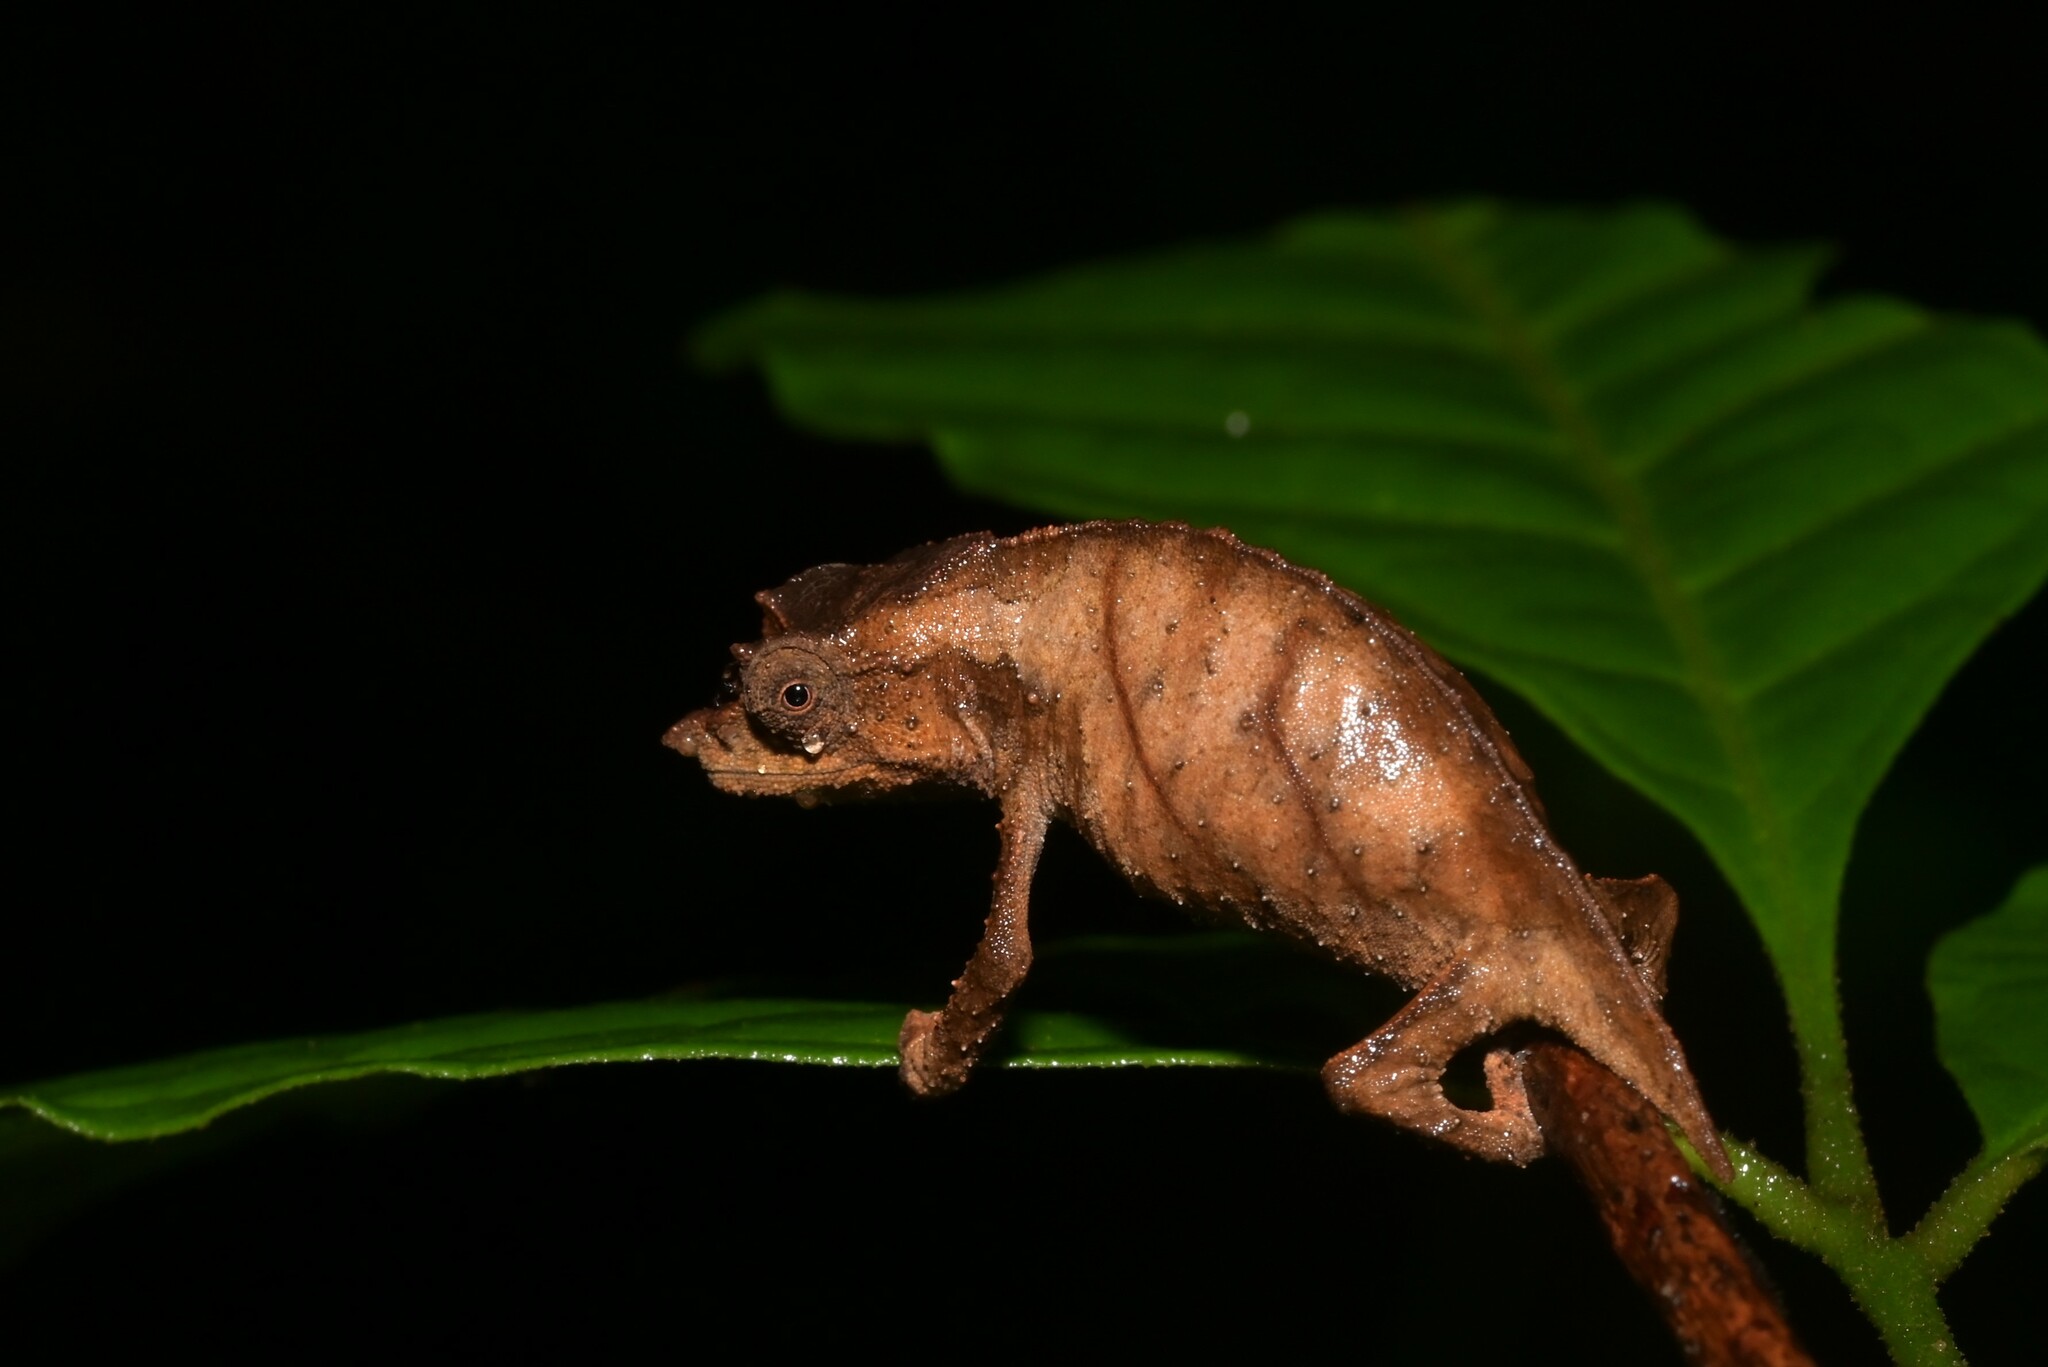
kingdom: Animalia
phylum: Chordata
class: Squamata
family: Chamaeleonidae
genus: Rhampholeon
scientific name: Rhampholeon nchisiensis
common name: South african stumptail chameleon
